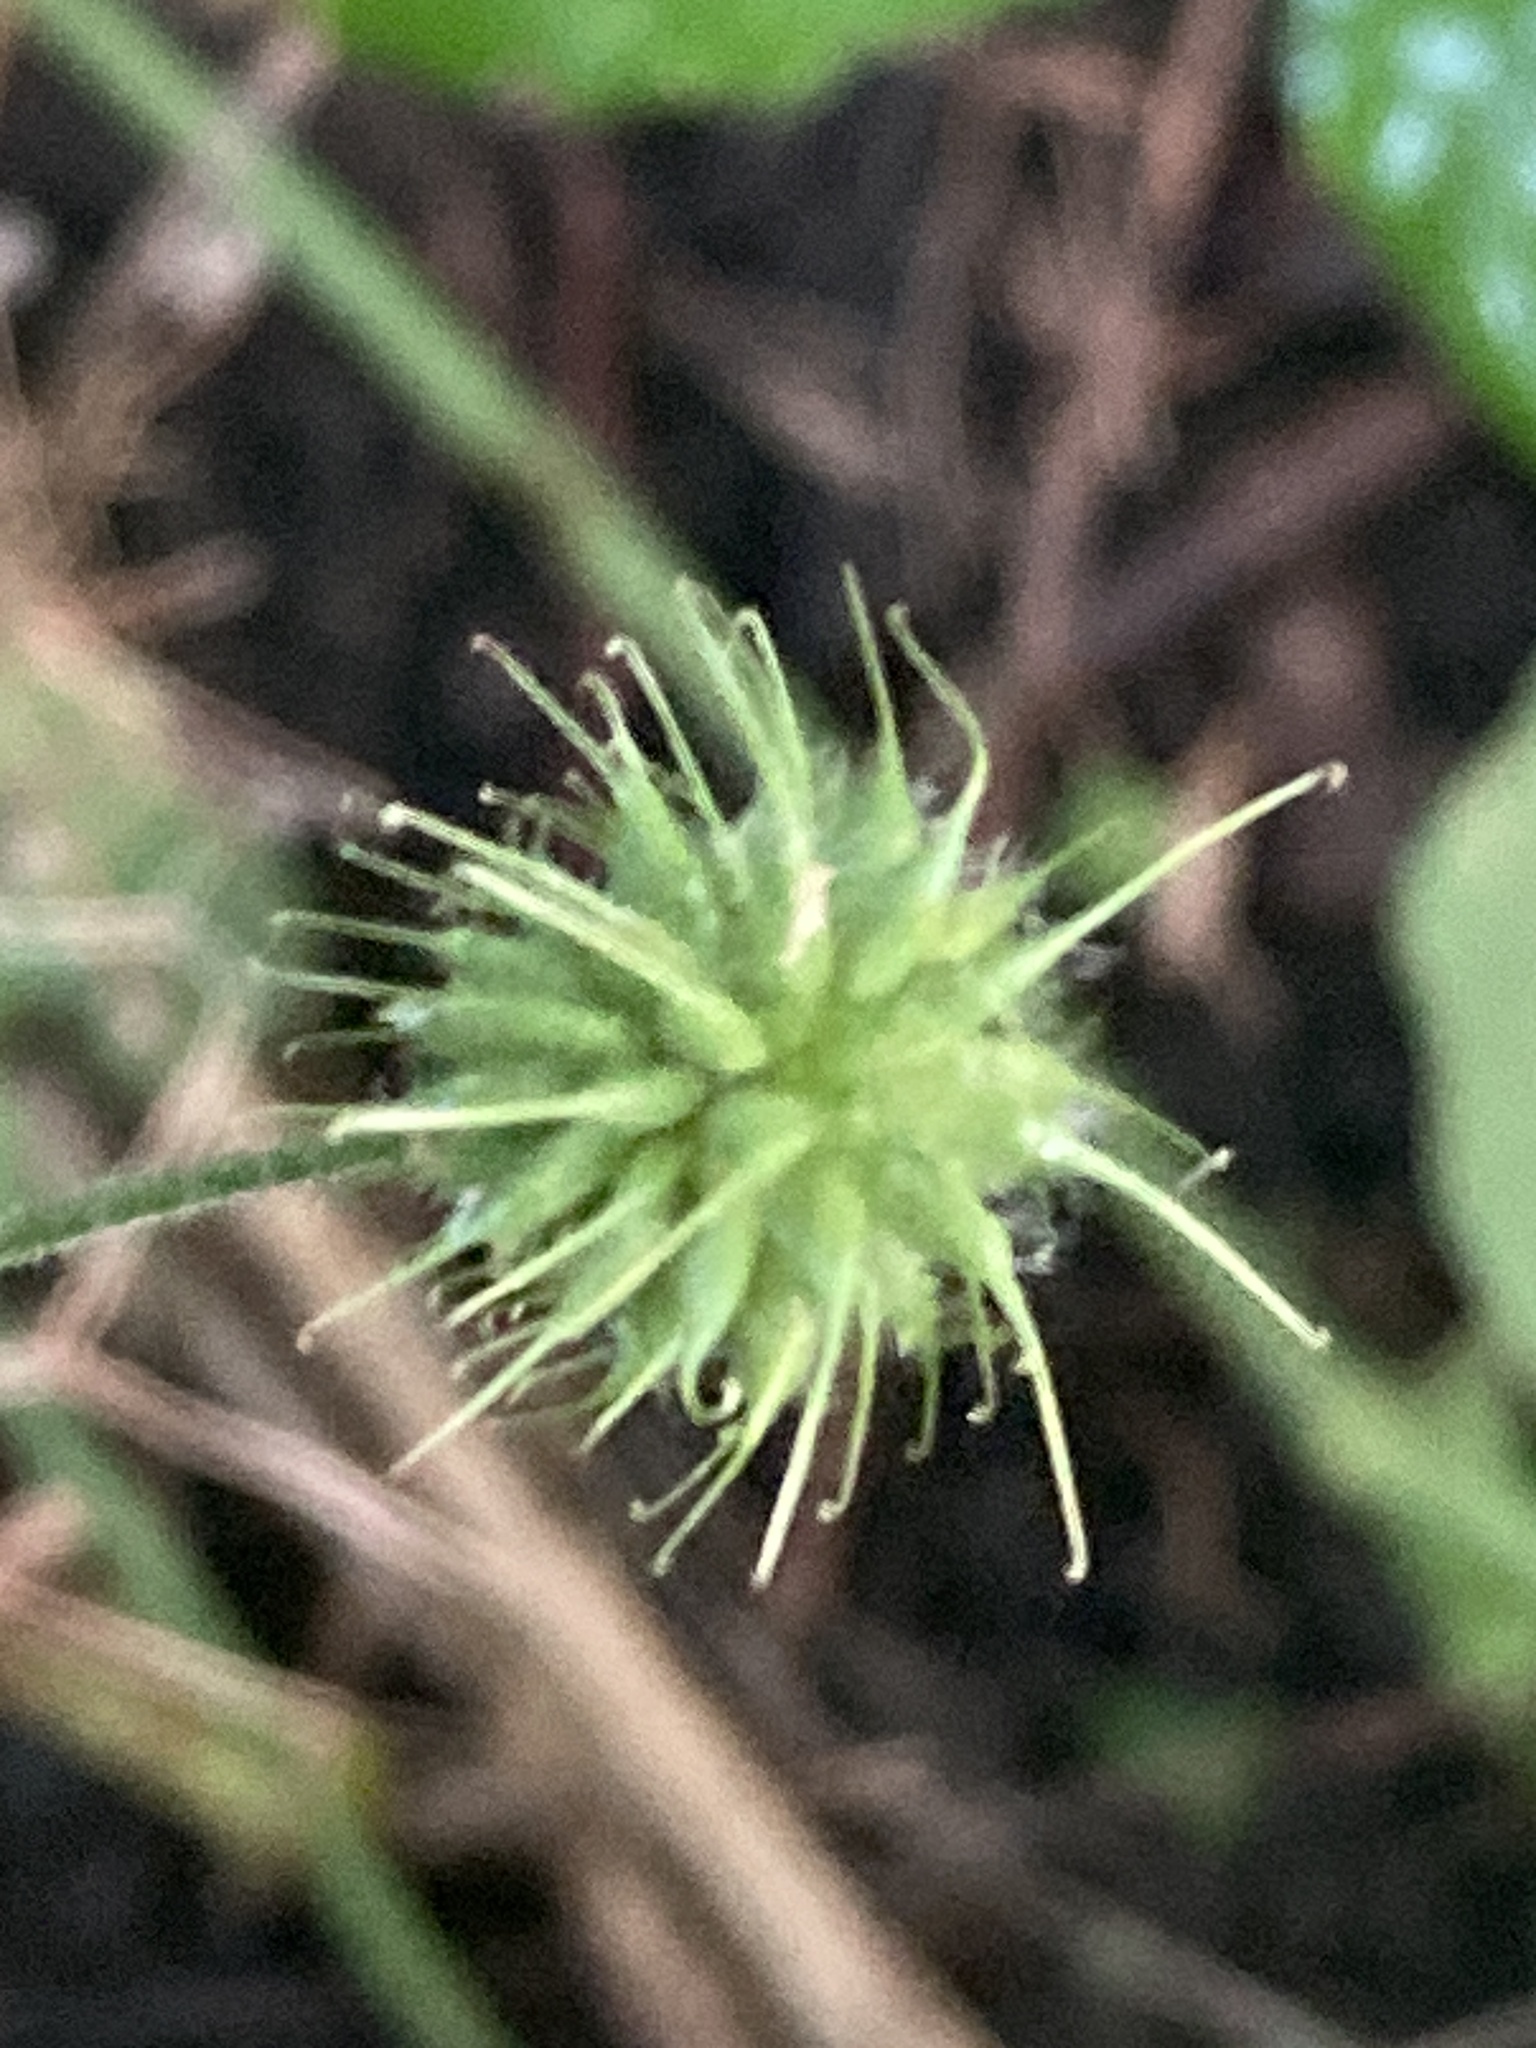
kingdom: Plantae
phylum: Tracheophyta
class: Magnoliopsida
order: Rosales
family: Rosaceae
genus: Geum
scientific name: Geum urbanum
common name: Wood avens
